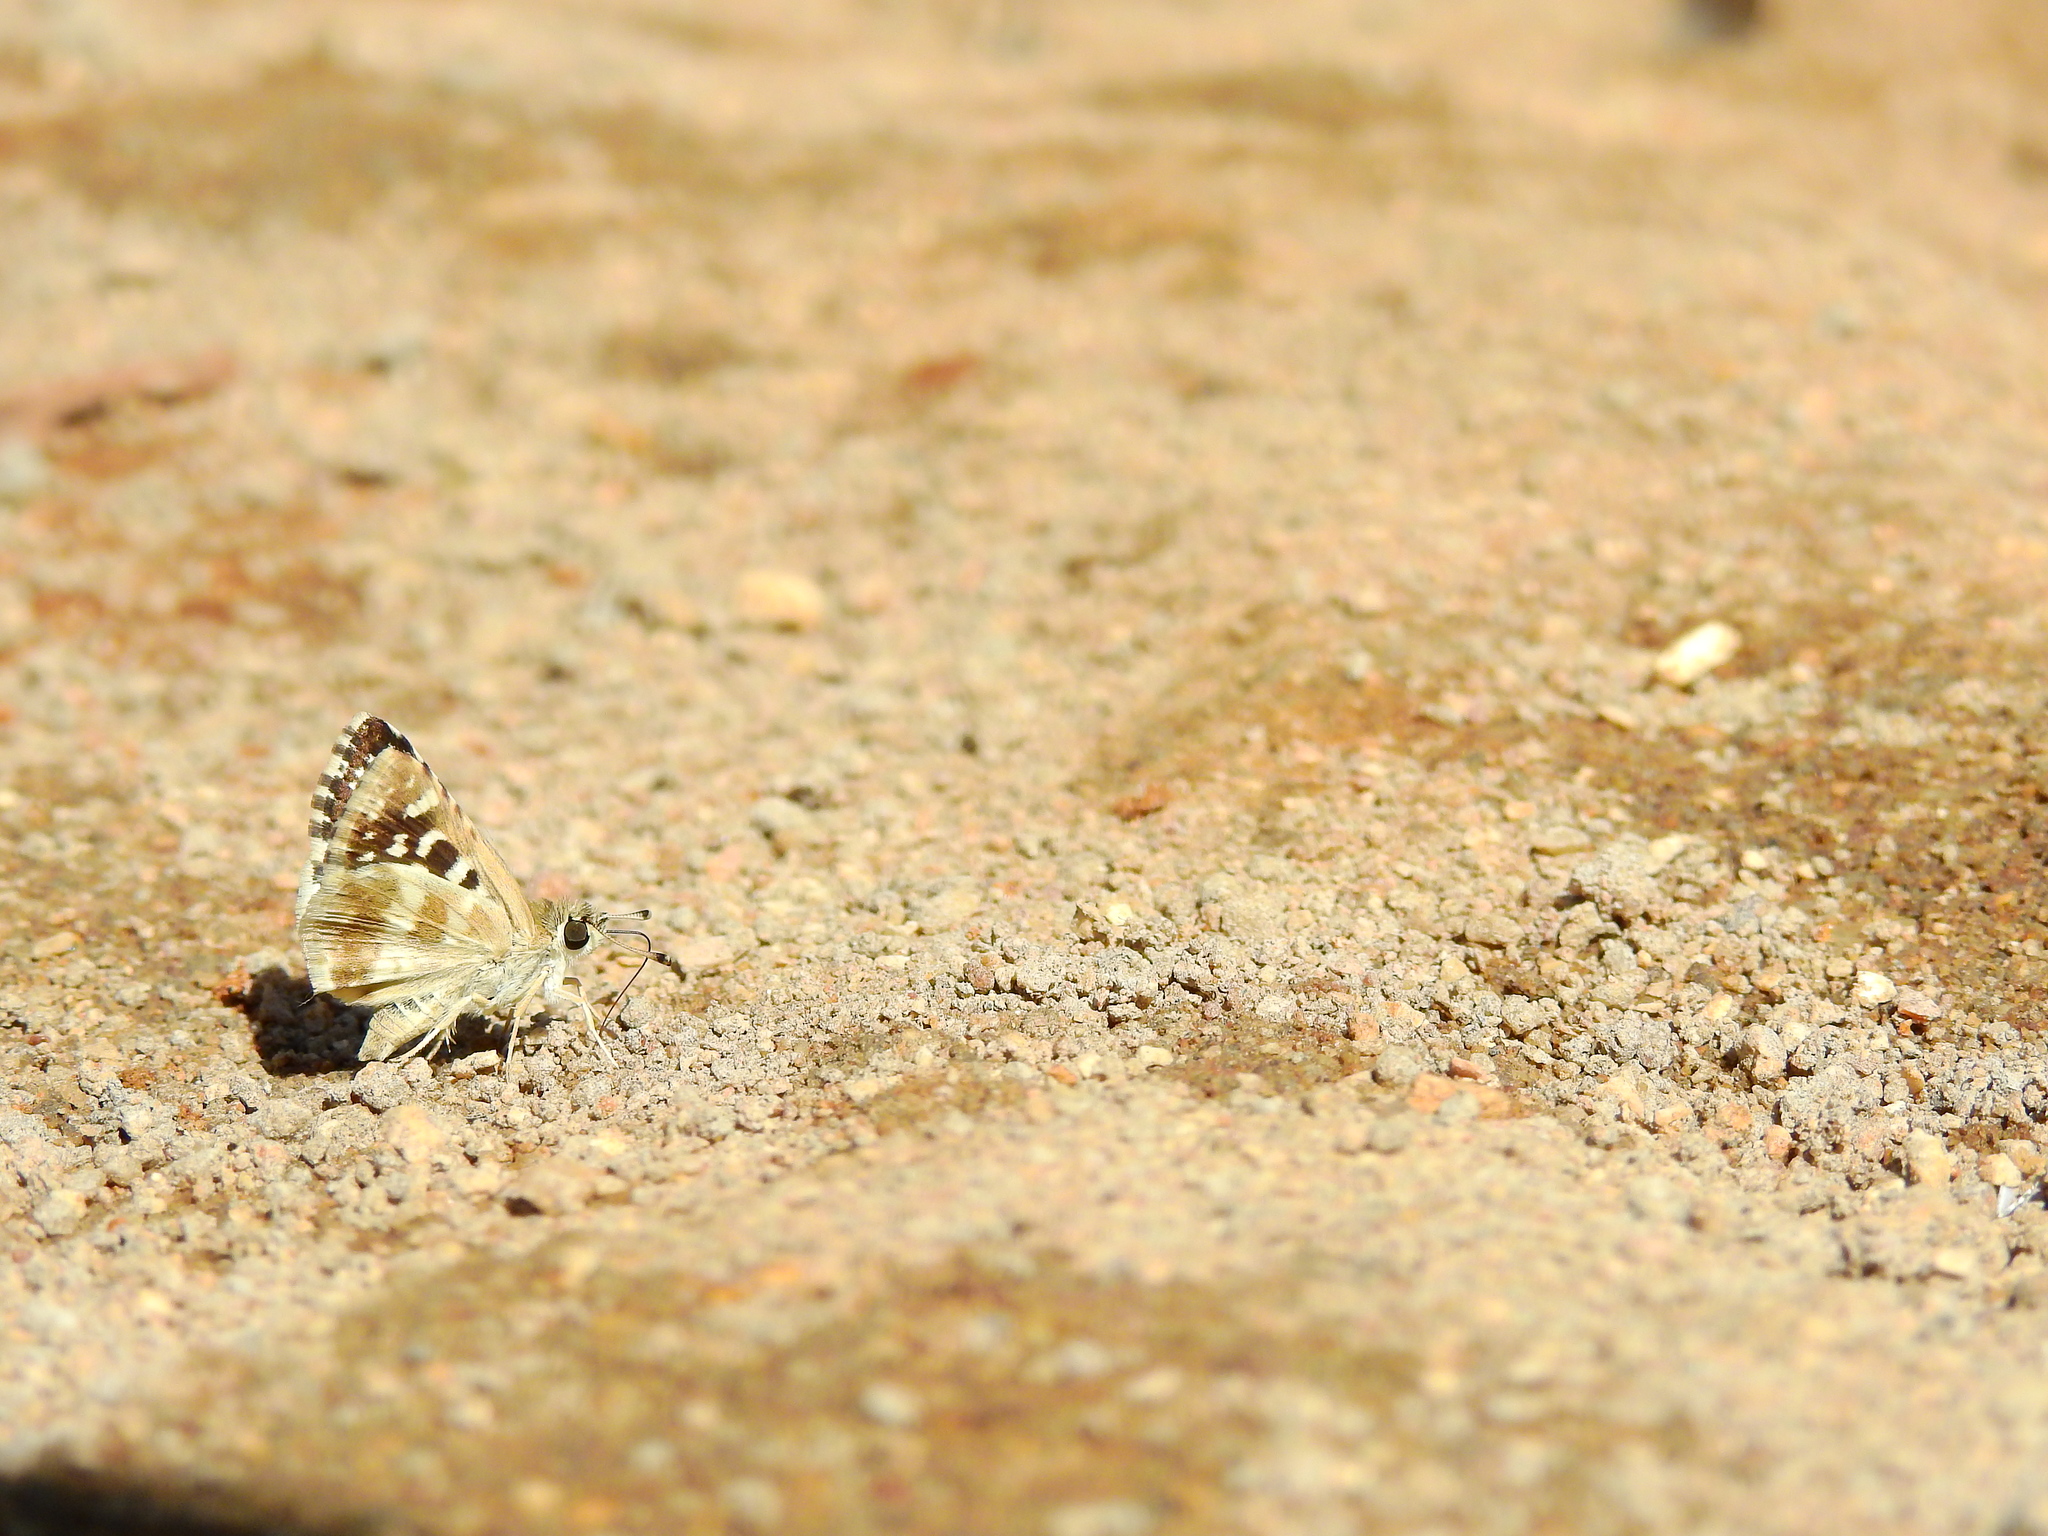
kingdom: Animalia
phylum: Arthropoda
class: Insecta
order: Lepidoptera
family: Hesperiidae
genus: Spialia
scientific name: Spialia galba
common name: Indian skipper
